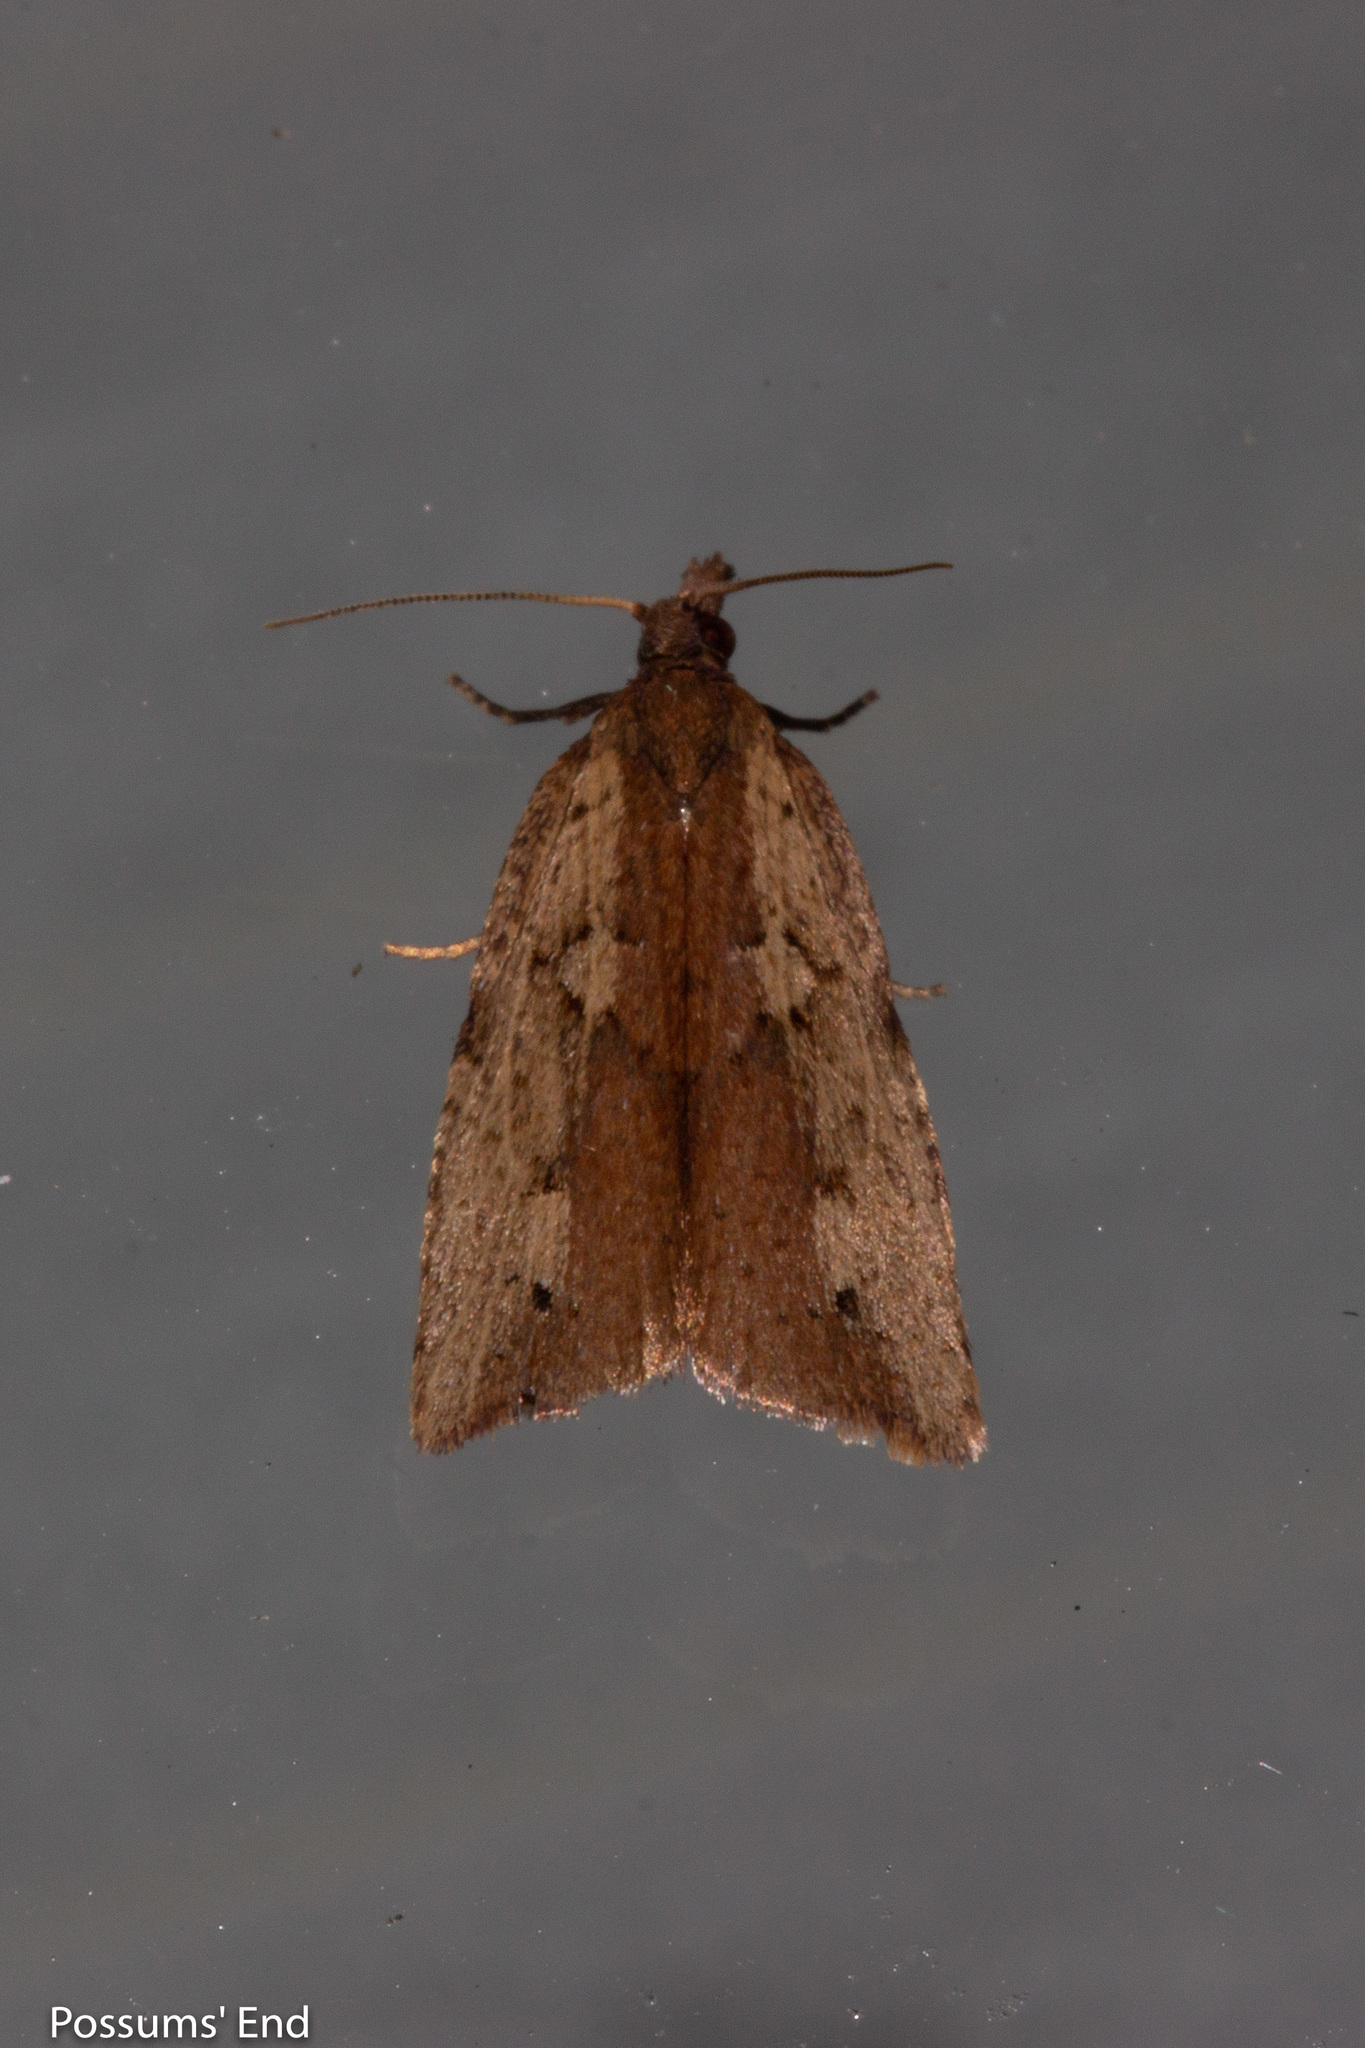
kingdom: Animalia
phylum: Arthropoda
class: Insecta
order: Lepidoptera
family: Tortricidae
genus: Planotortrix
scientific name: Planotortrix notophaea
